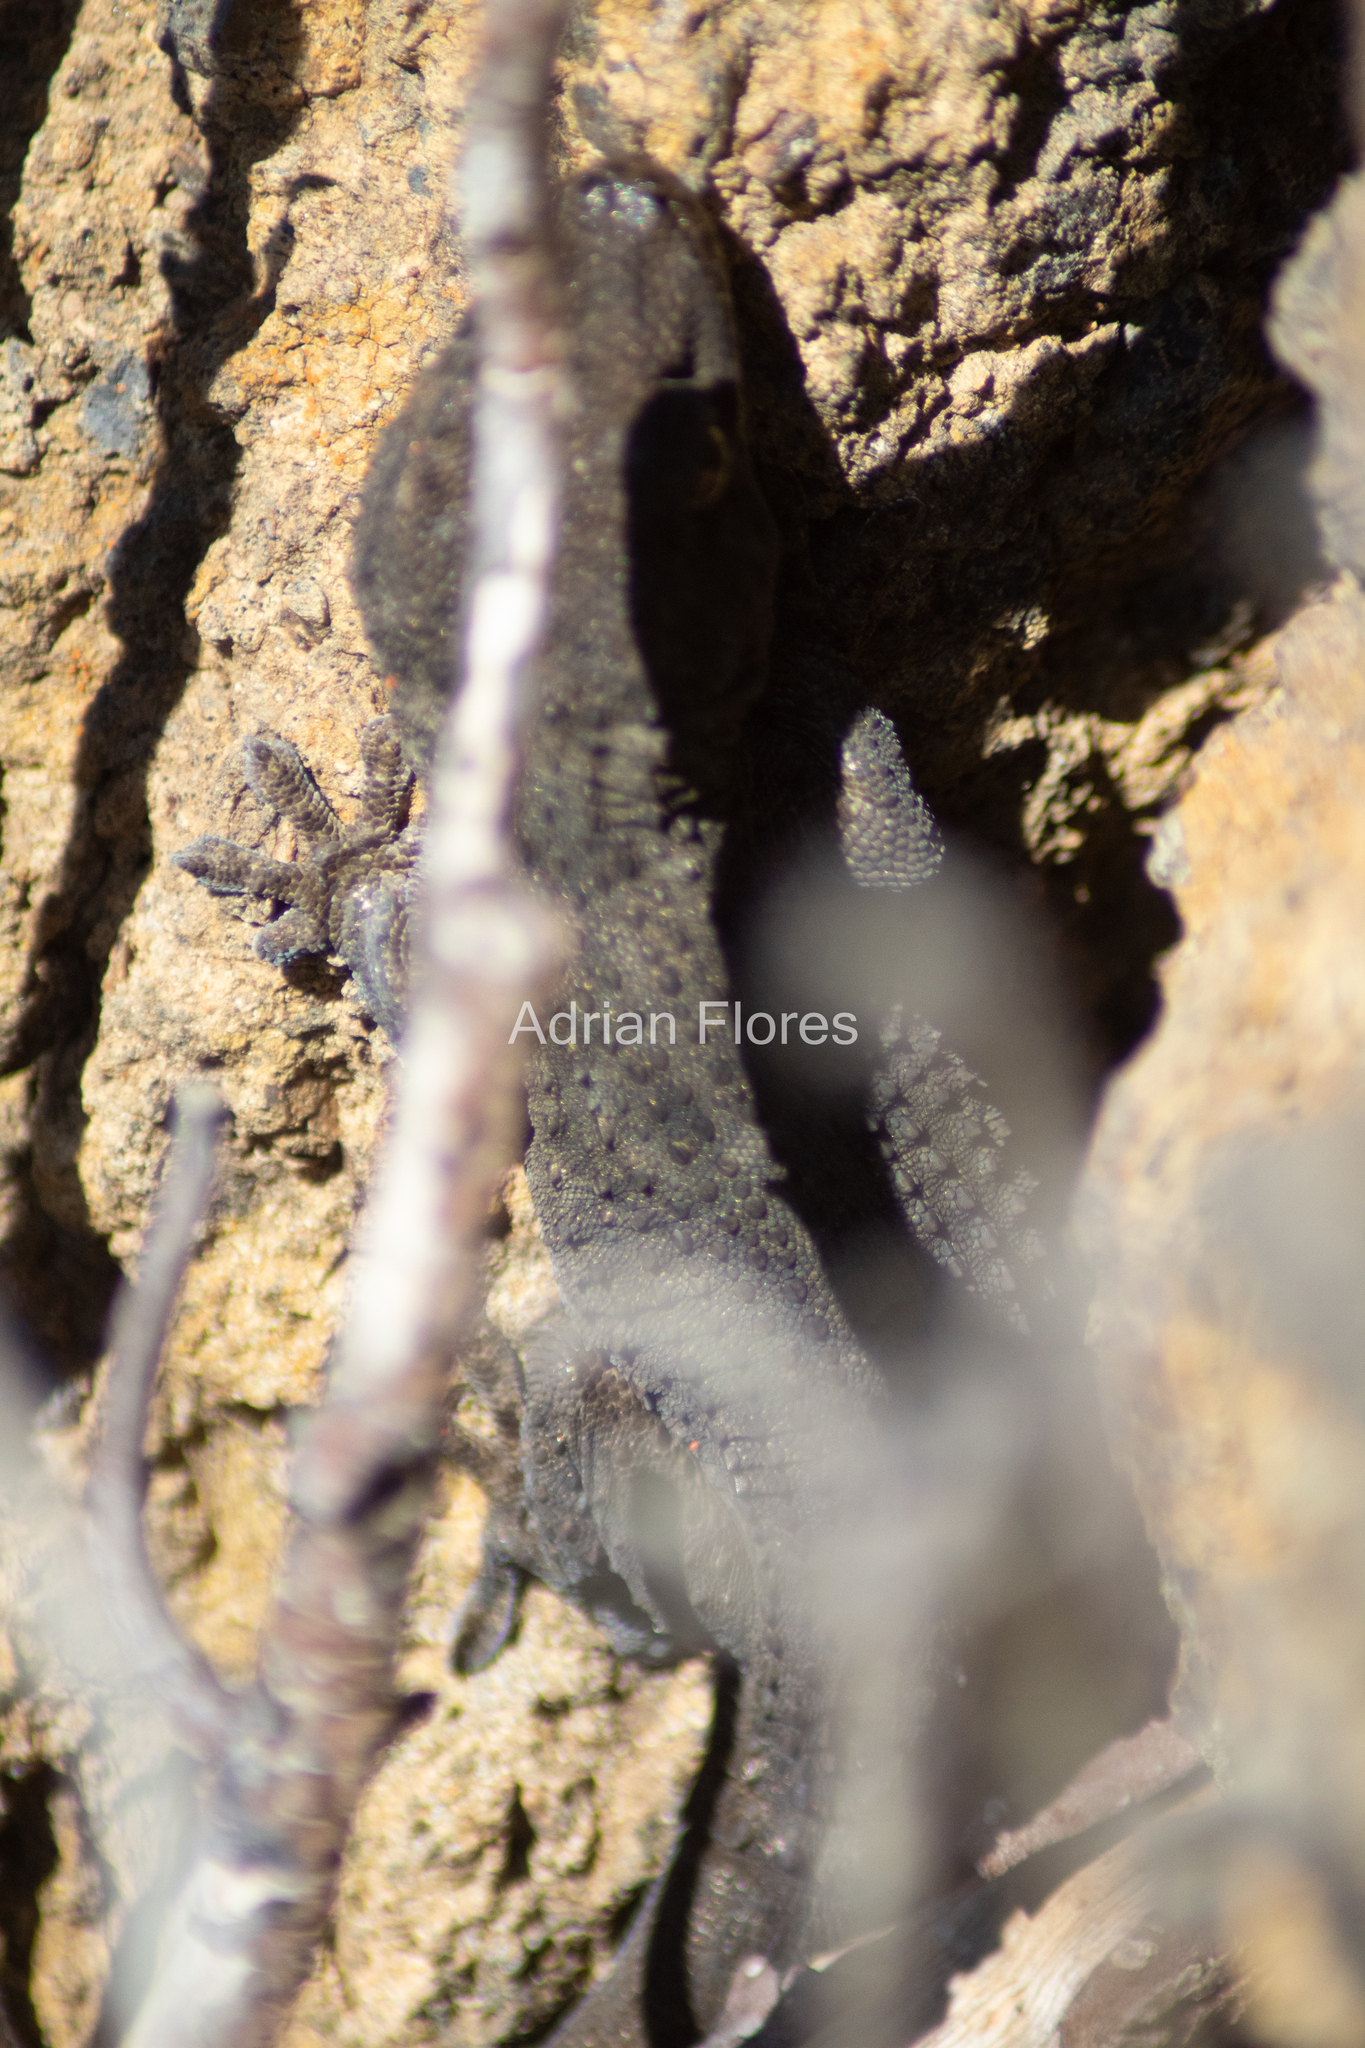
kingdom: Animalia
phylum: Chordata
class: Squamata
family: Phyllodactylidae
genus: Tarentola
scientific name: Tarentola delalandii
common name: Tenerife wall gecko
